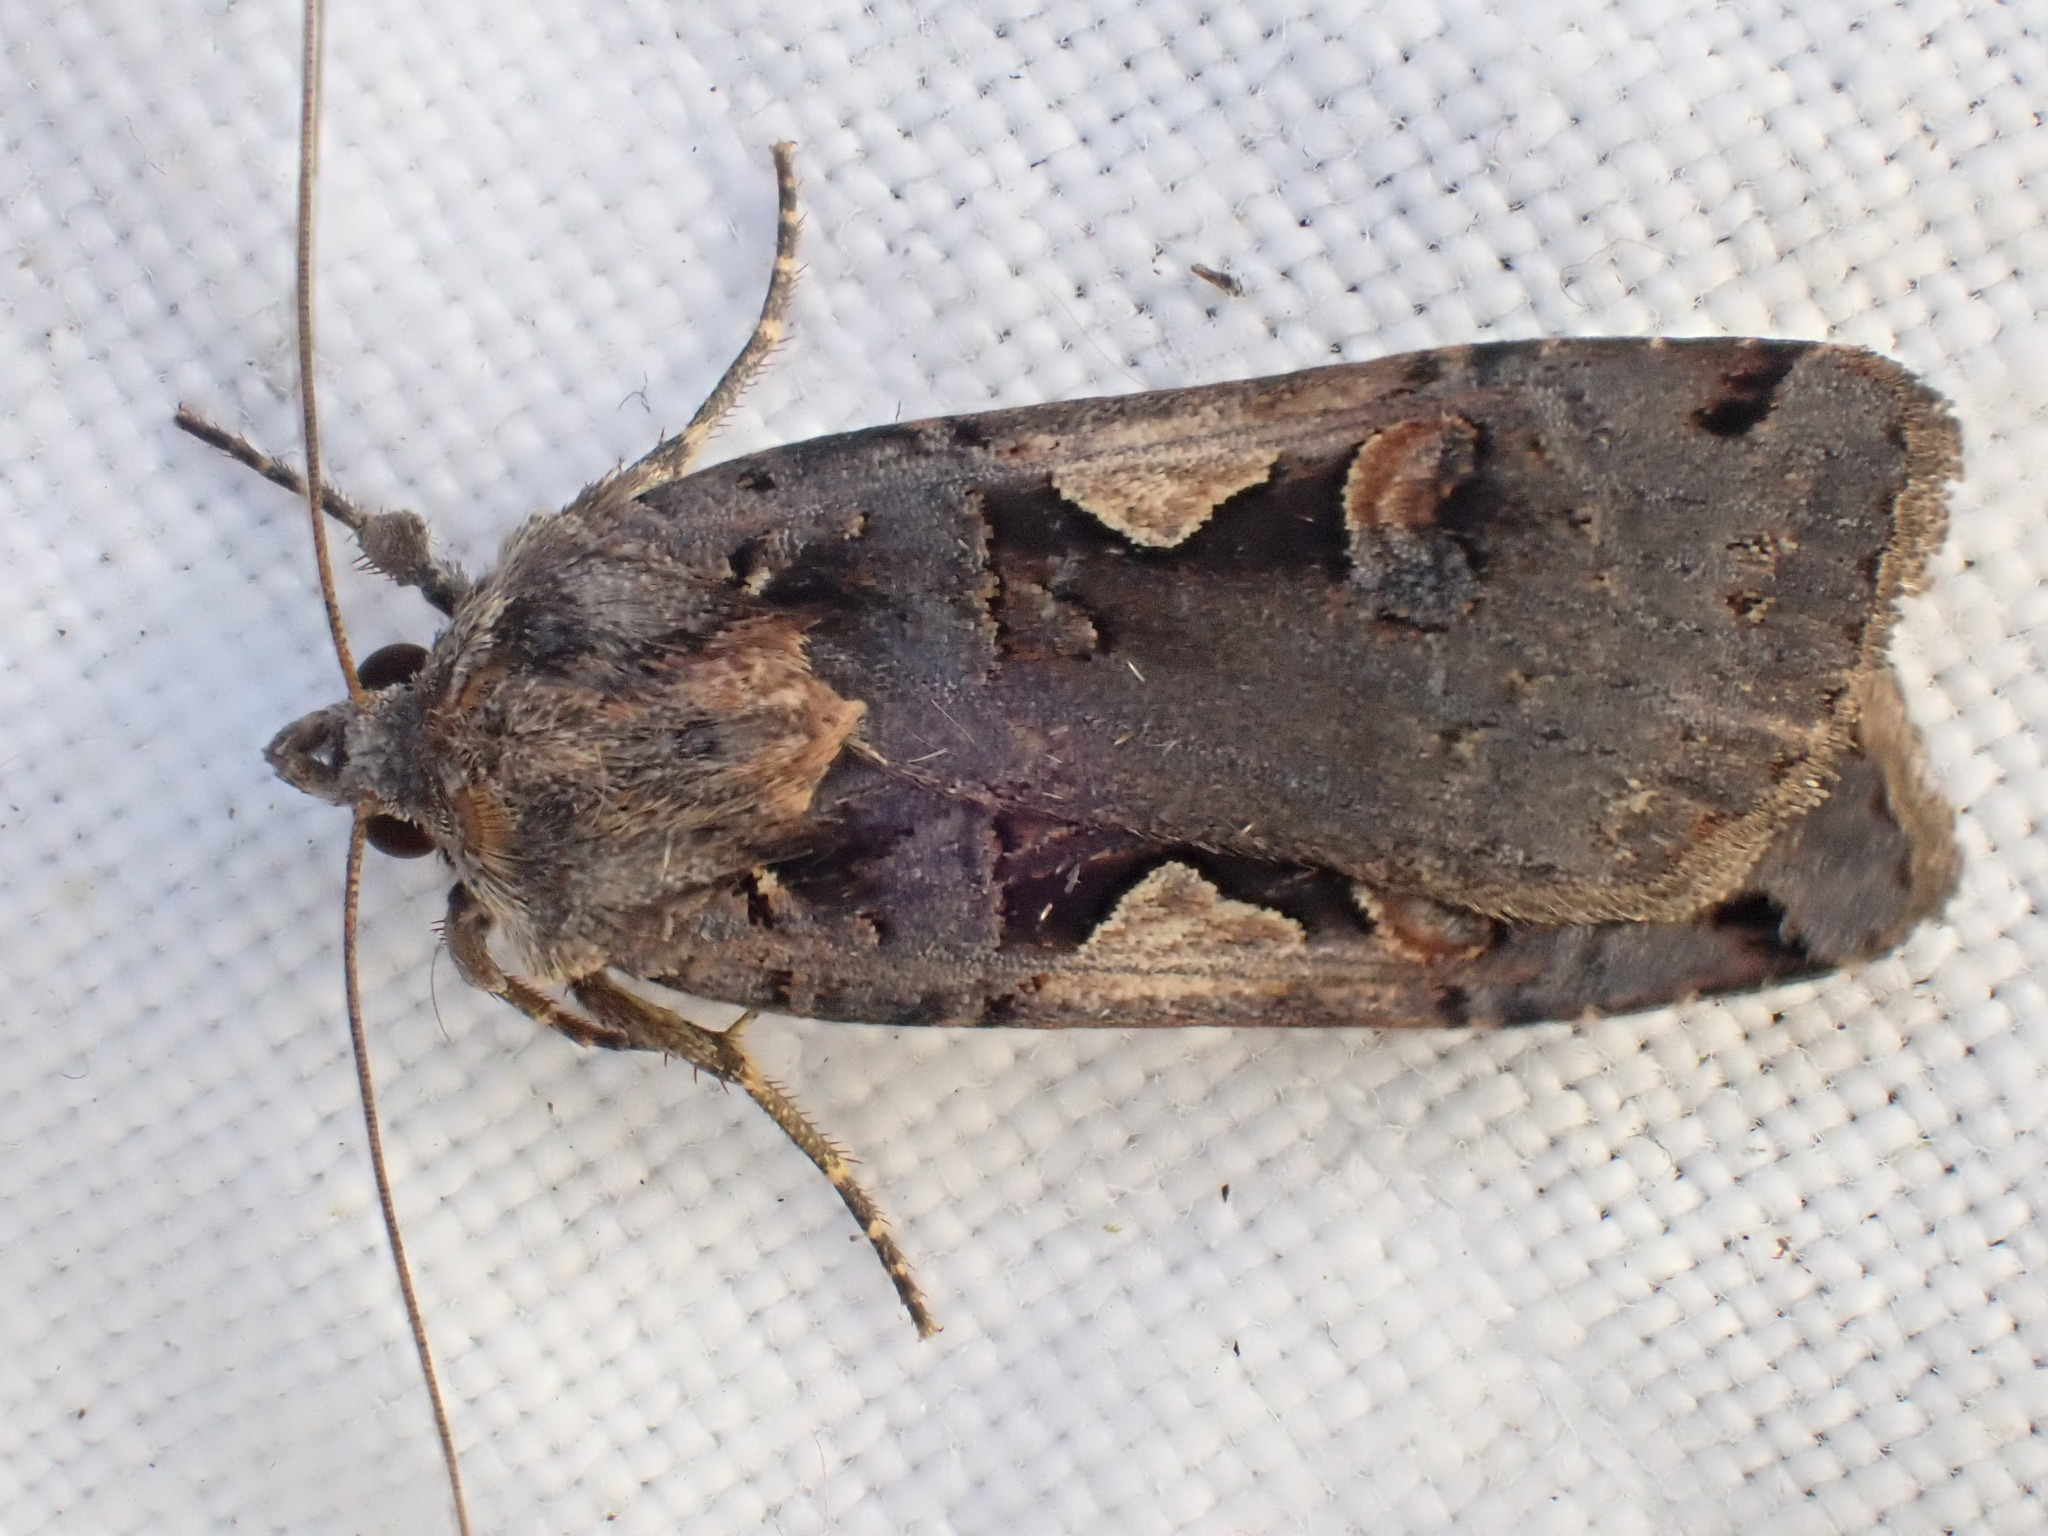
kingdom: Animalia
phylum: Arthropoda
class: Insecta
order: Lepidoptera
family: Noctuidae
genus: Xestia
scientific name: Xestia c-nigrum
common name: Setaceous hebrew character
